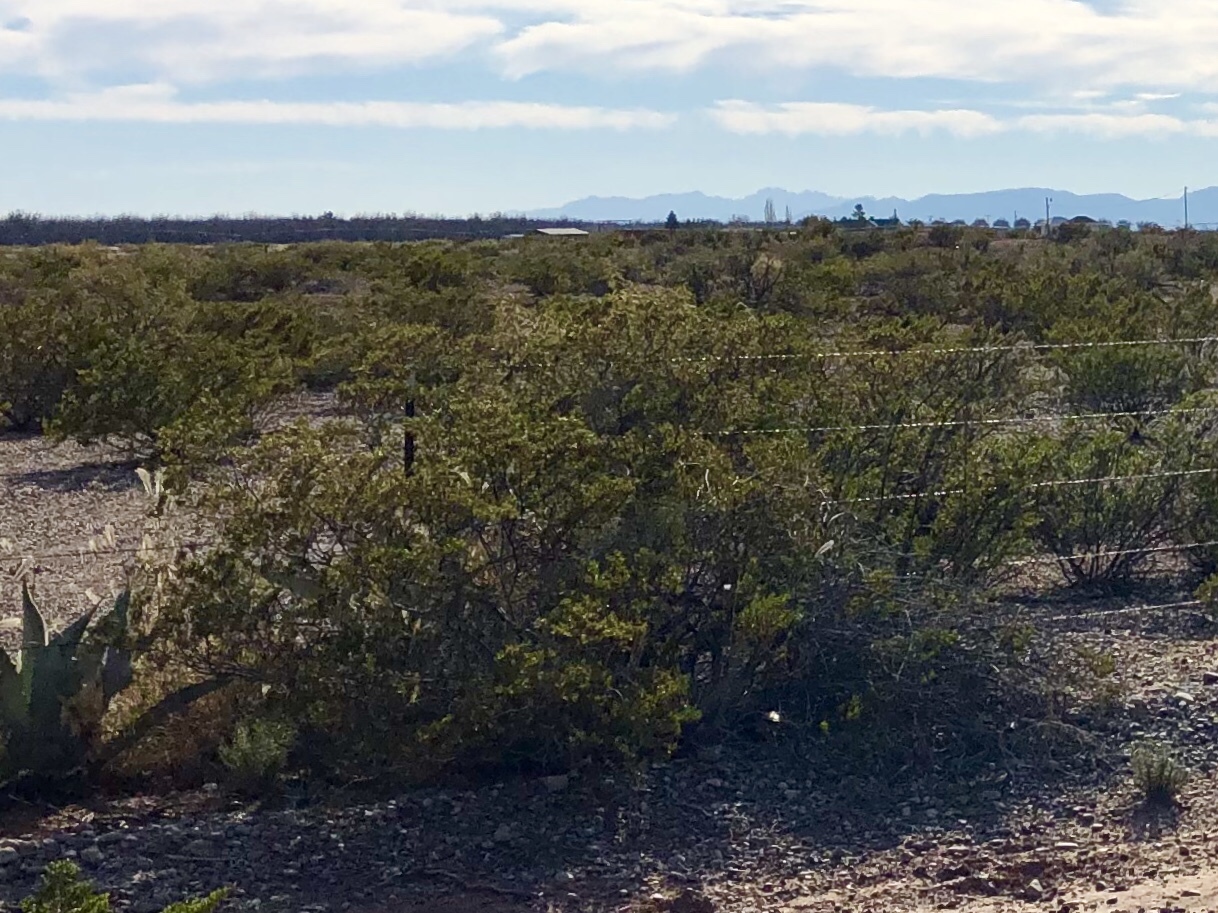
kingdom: Plantae
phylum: Tracheophyta
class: Magnoliopsida
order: Zygophyllales
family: Zygophyllaceae
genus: Larrea
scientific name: Larrea tridentata
